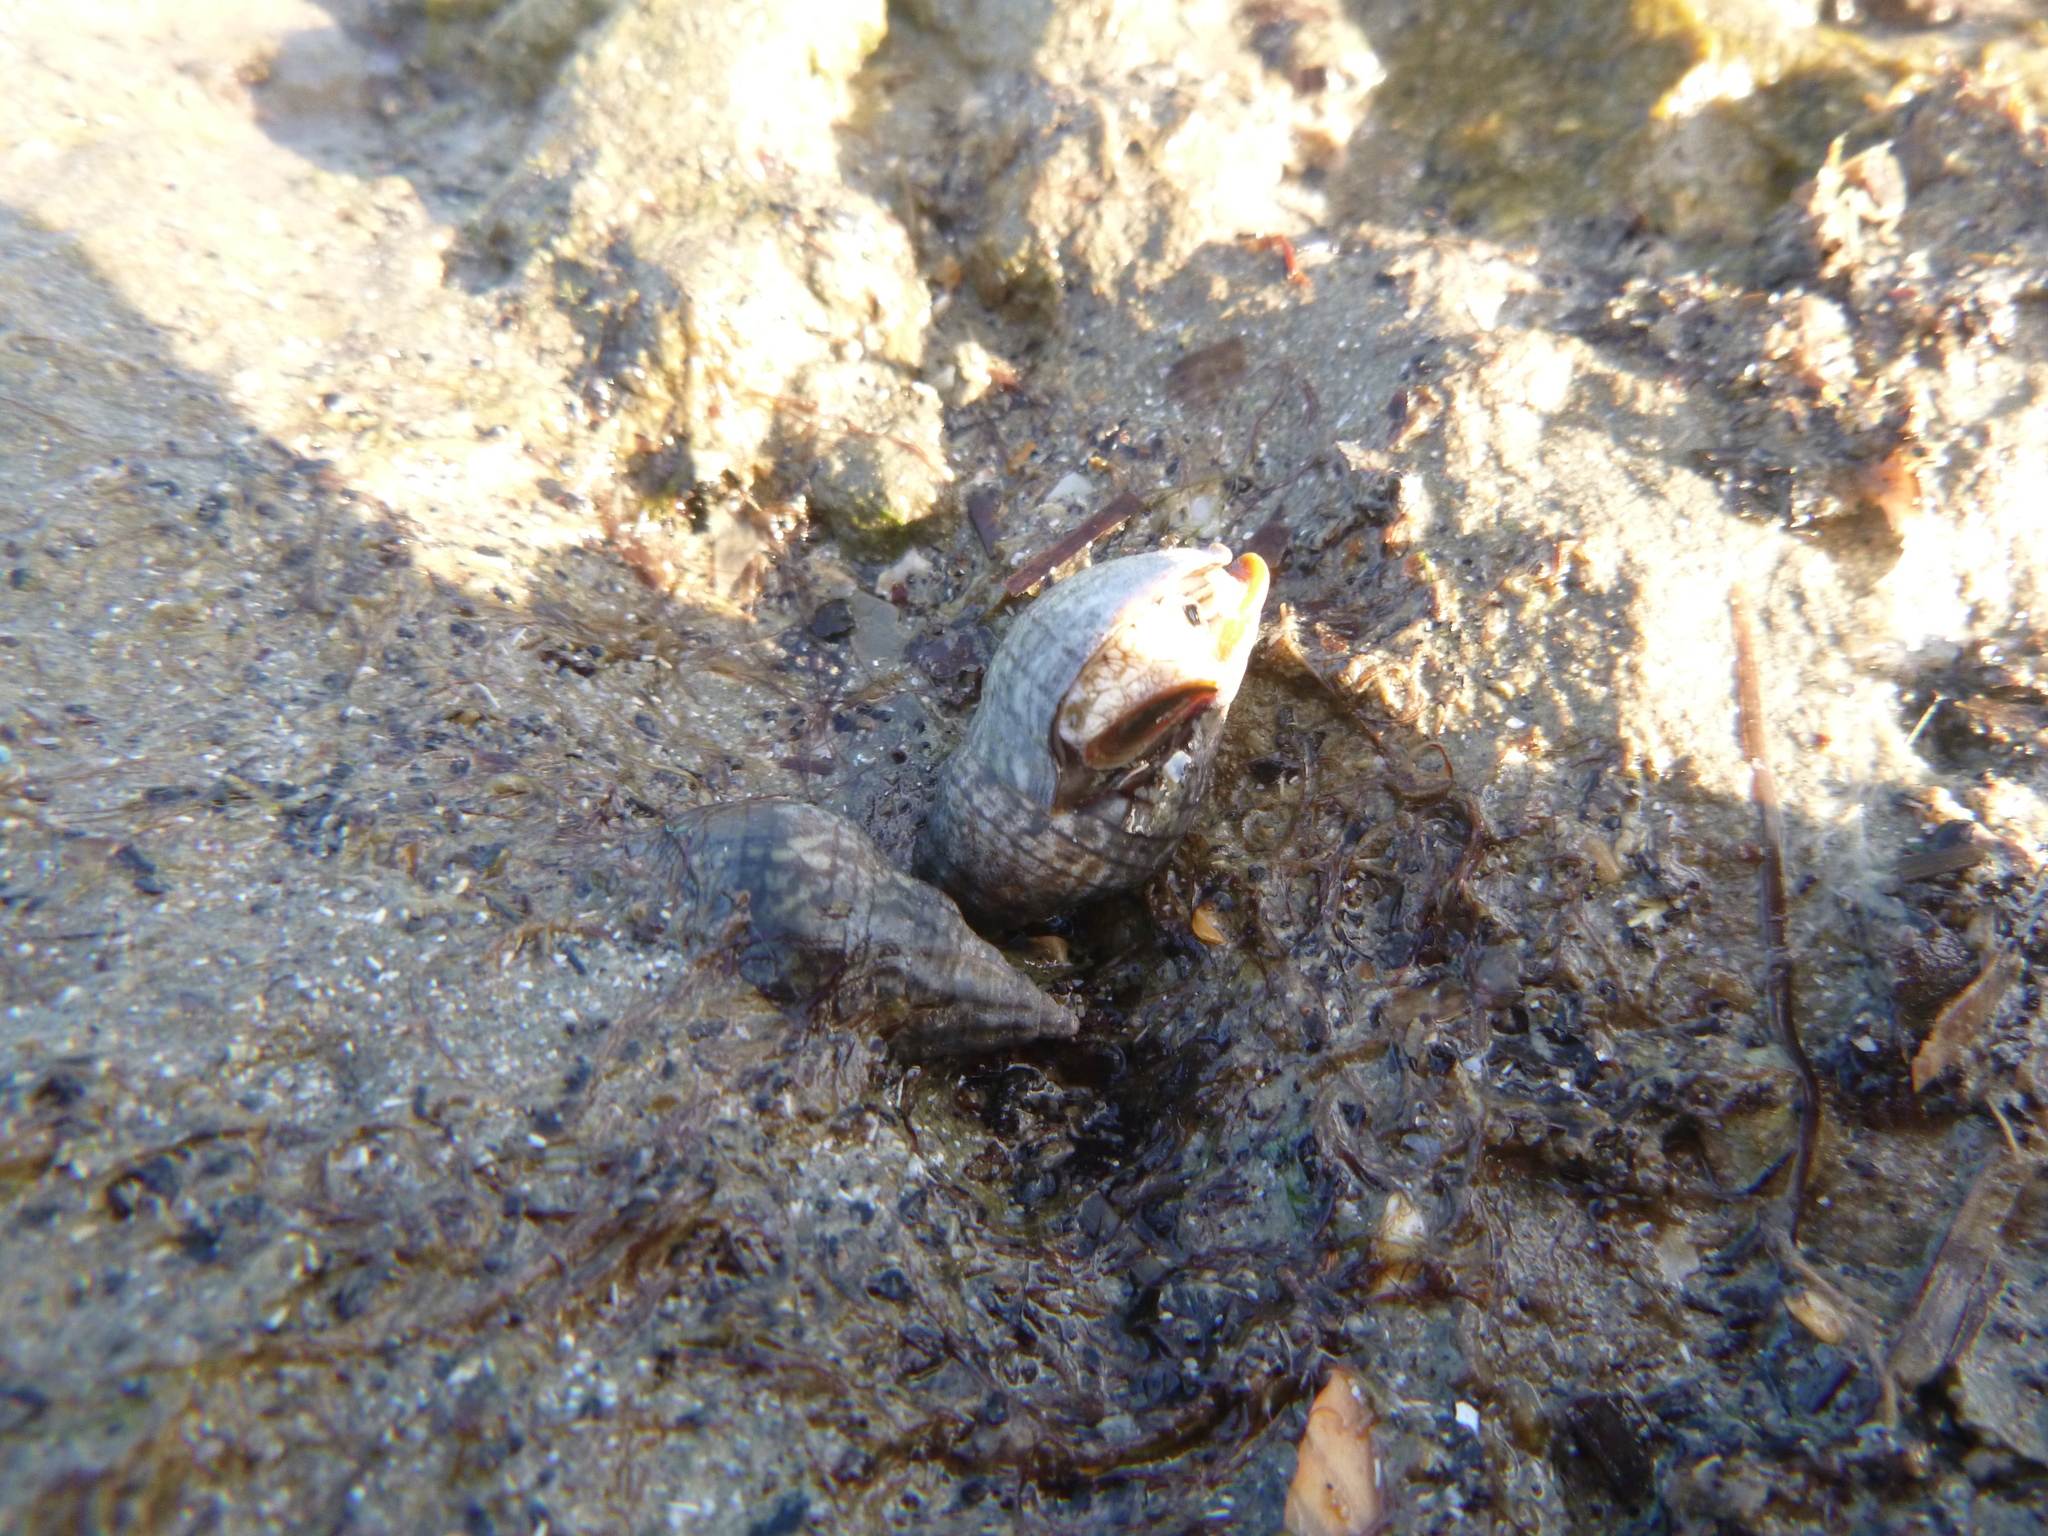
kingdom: Animalia
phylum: Mollusca
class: Gastropoda
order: Neogastropoda
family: Cominellidae
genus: Cominella
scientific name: Cominella virgata
